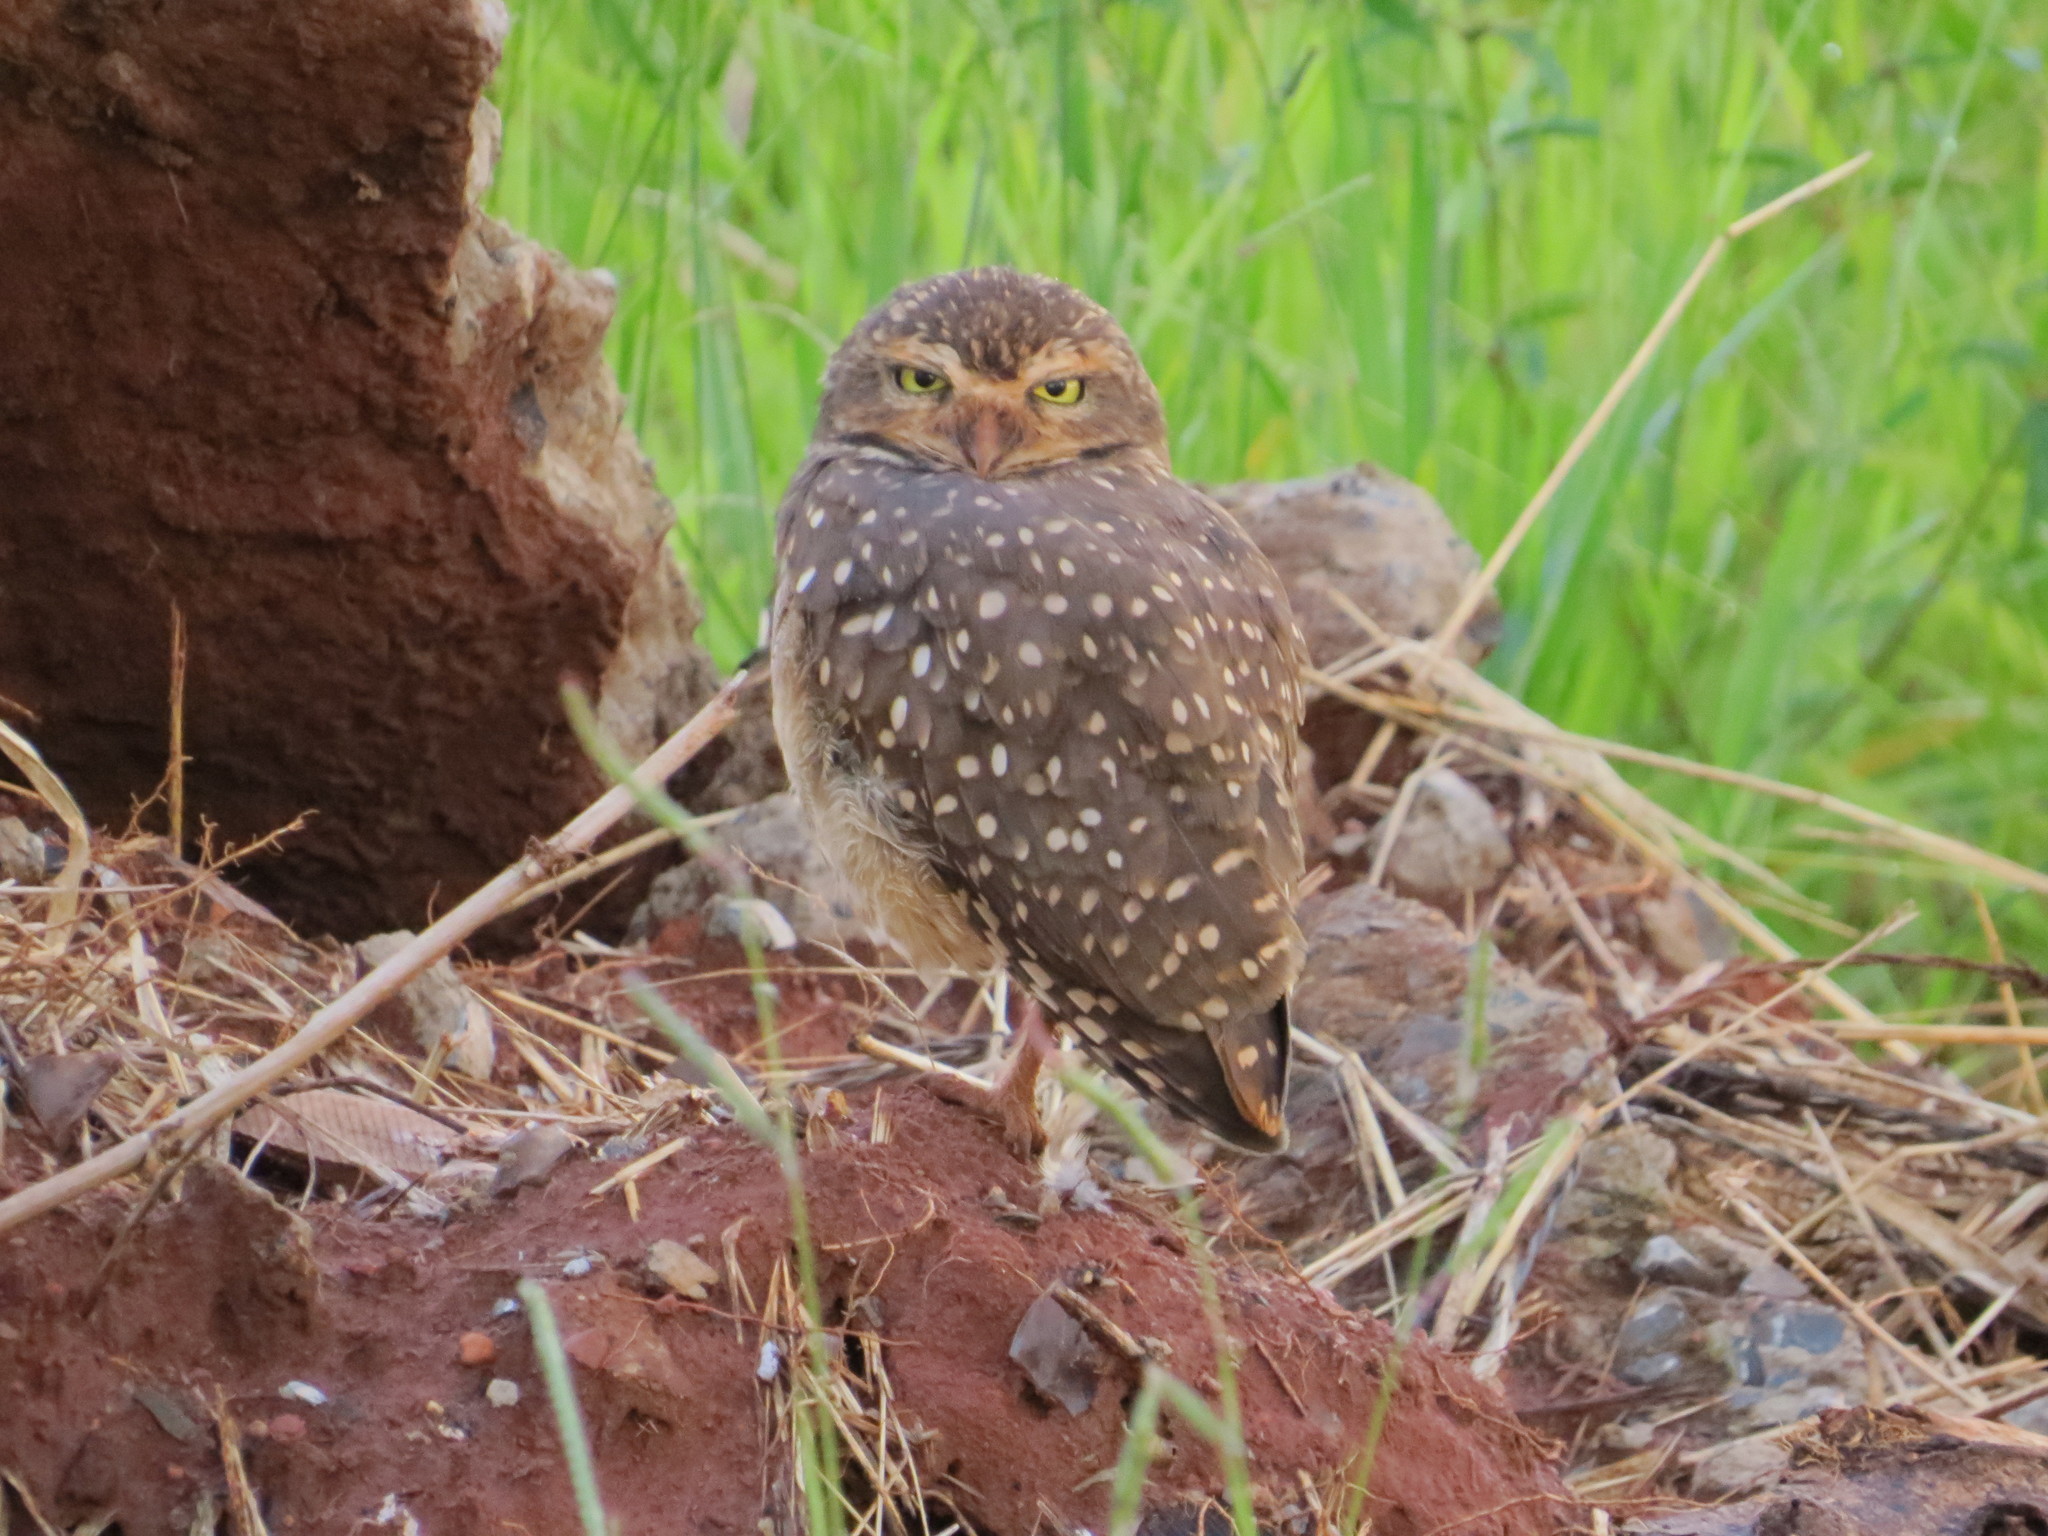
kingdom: Animalia
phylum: Chordata
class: Aves
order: Strigiformes
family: Strigidae
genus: Athene
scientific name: Athene cunicularia
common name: Burrowing owl
